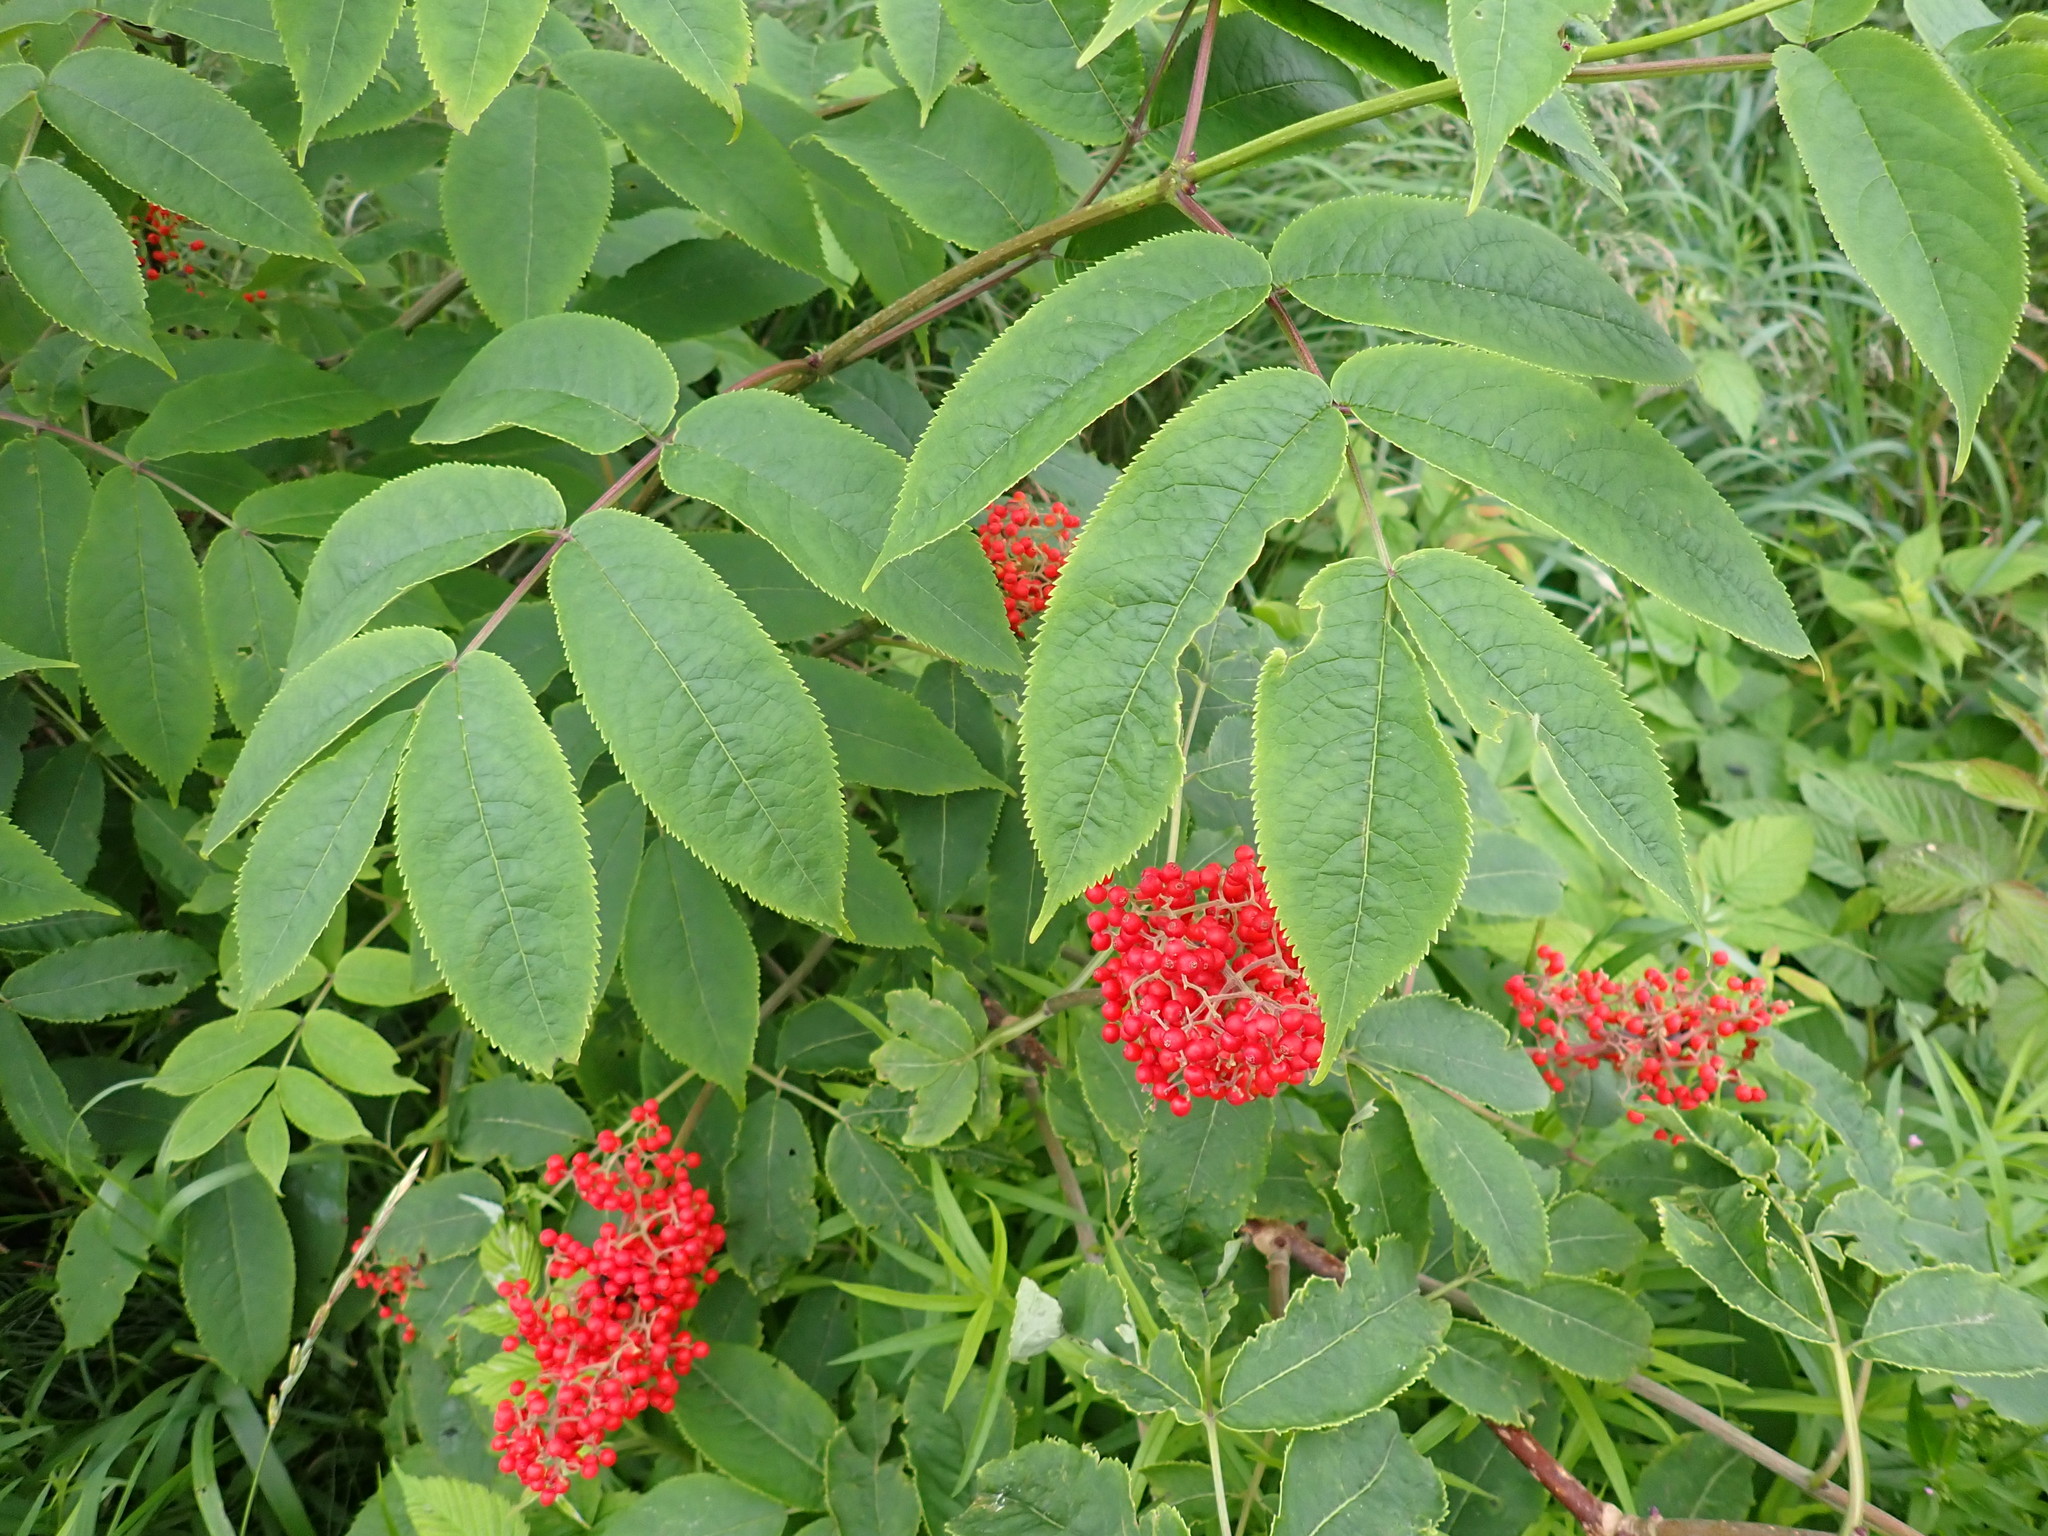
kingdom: Plantae
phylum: Tracheophyta
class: Magnoliopsida
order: Dipsacales
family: Viburnaceae
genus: Sambucus
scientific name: Sambucus racemosa
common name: Red-berried elder
